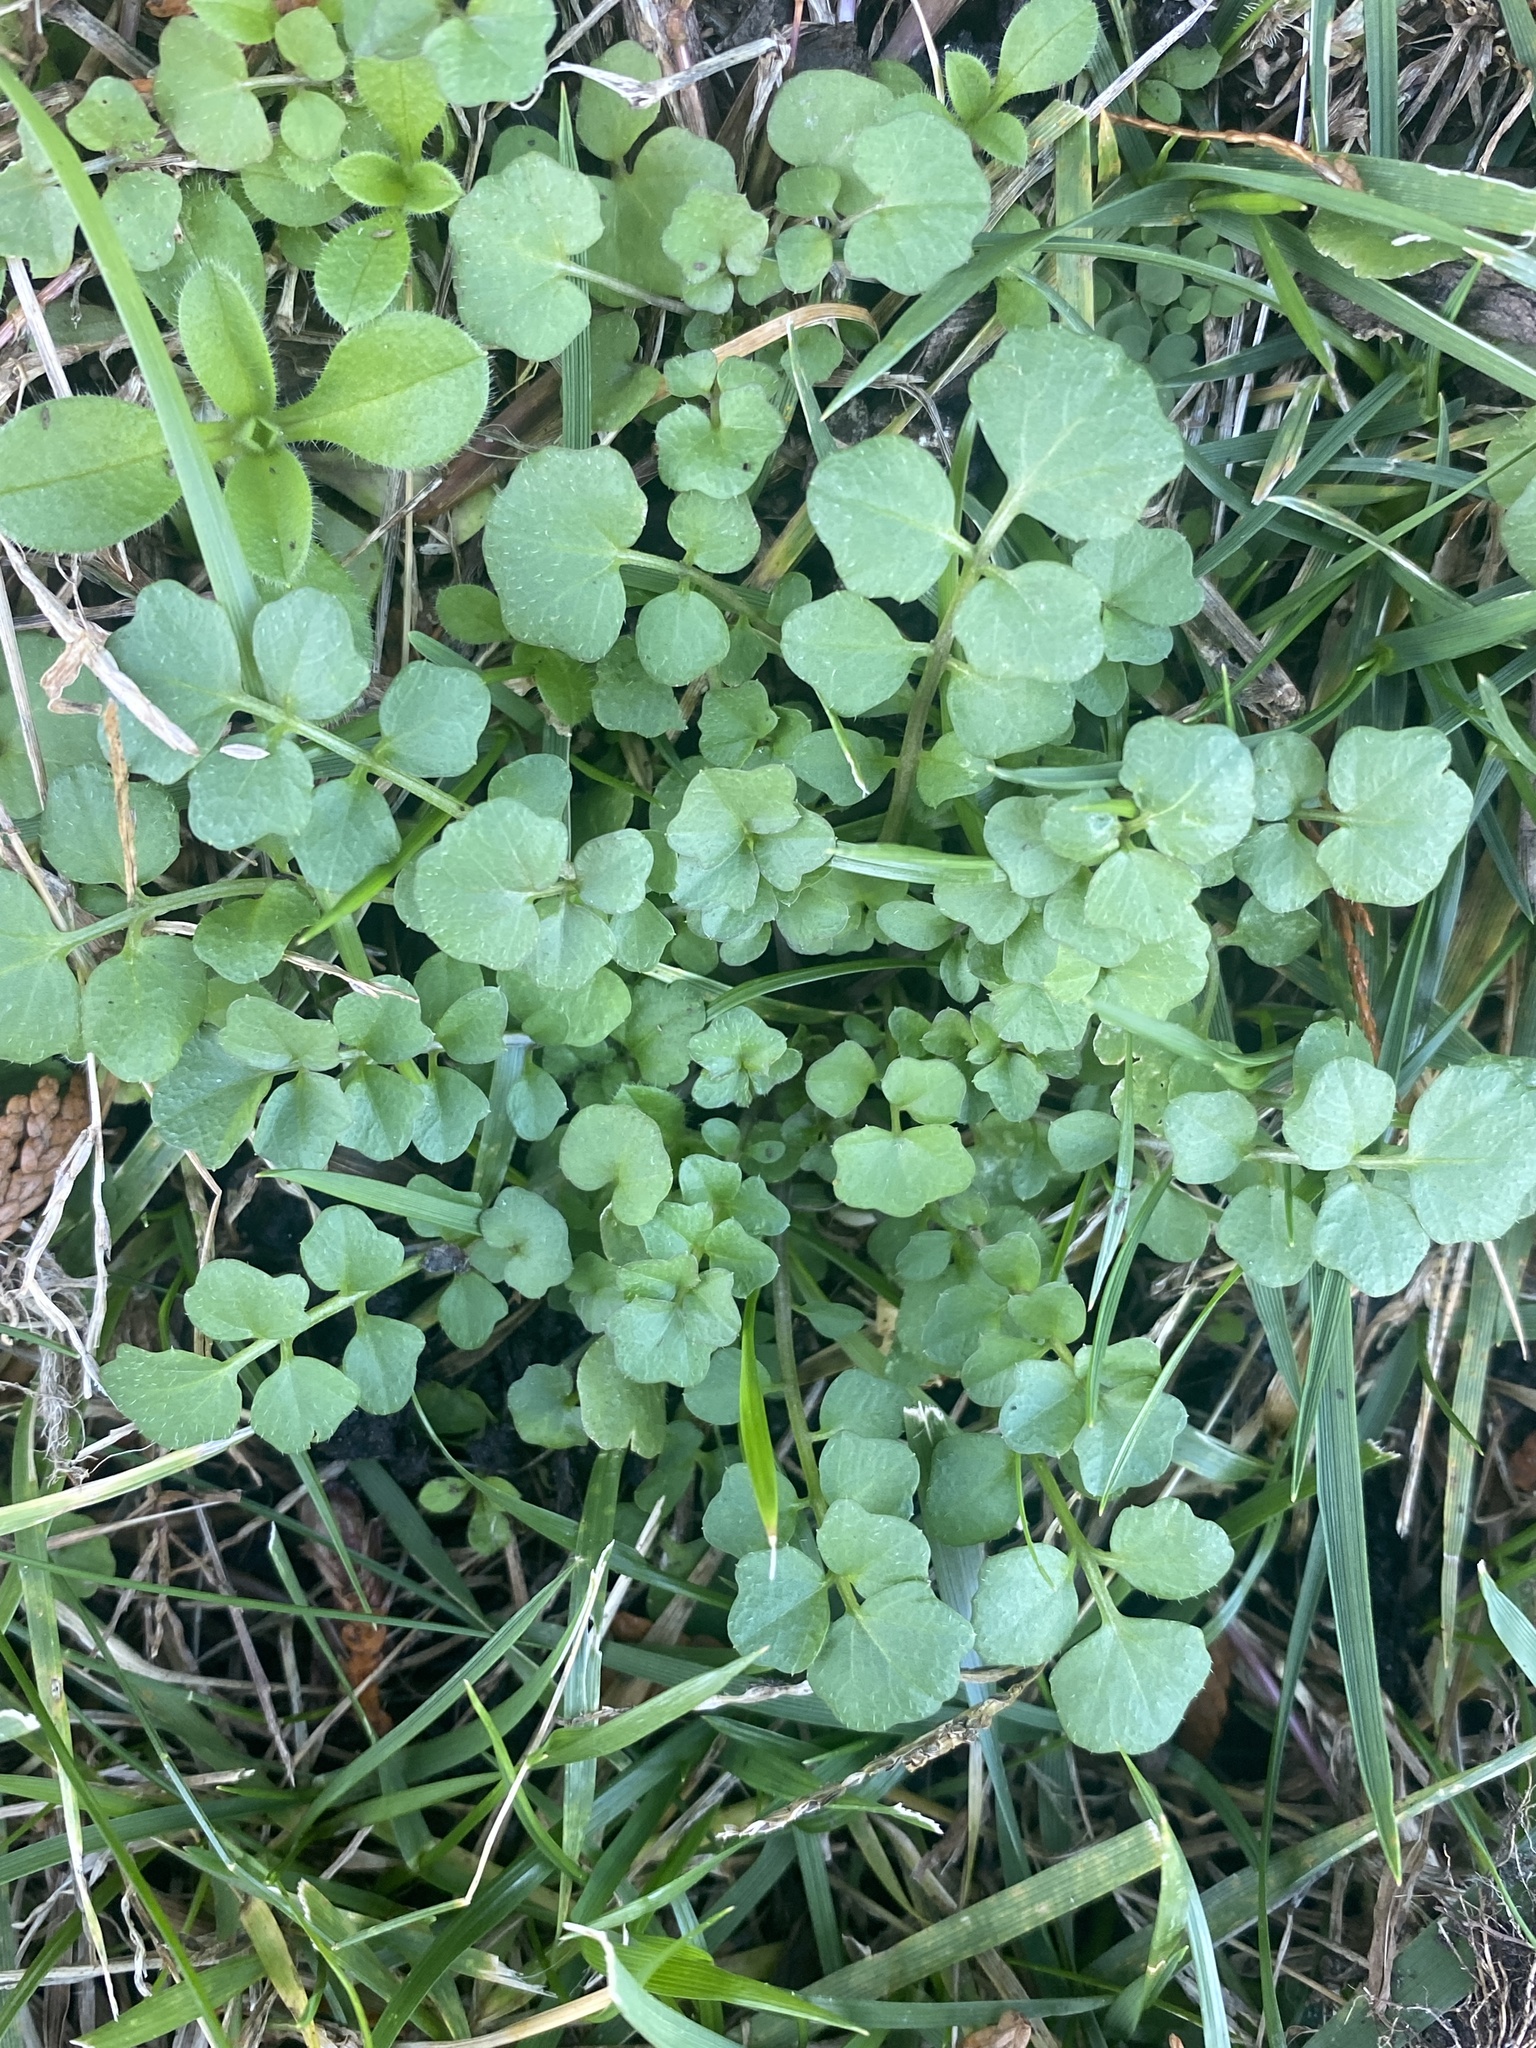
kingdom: Plantae
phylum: Tracheophyta
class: Magnoliopsida
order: Brassicales
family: Brassicaceae
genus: Cardamine
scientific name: Cardamine hirsuta
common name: Hairy bittercress
